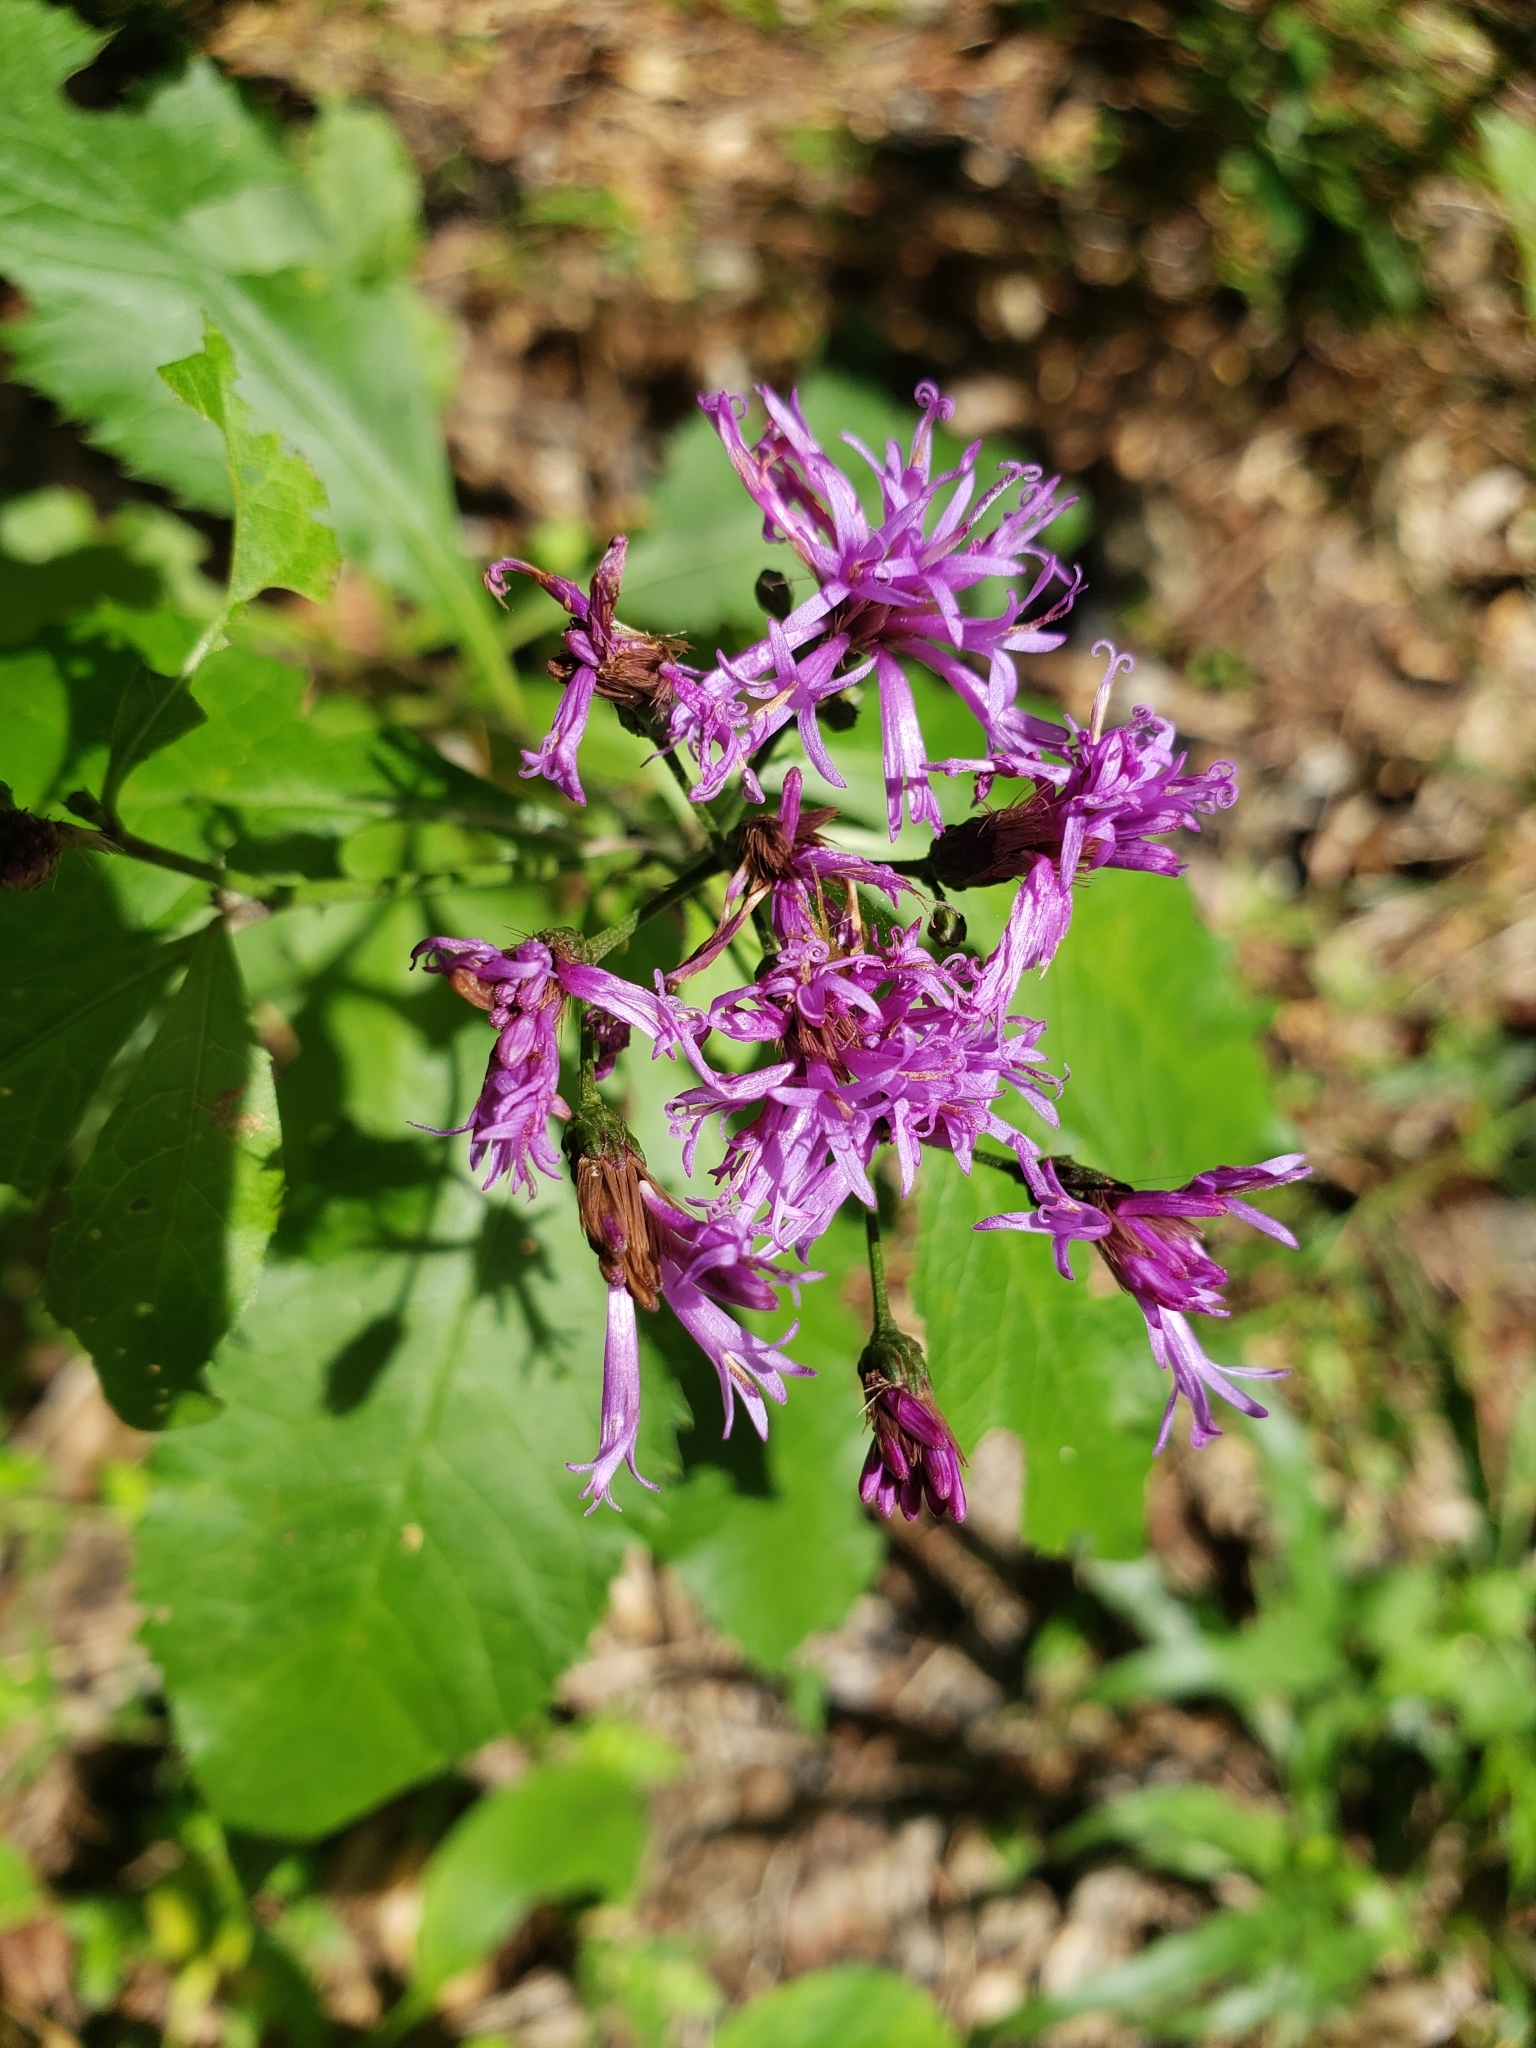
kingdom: Plantae
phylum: Tracheophyta
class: Magnoliopsida
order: Asterales
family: Asteraceae
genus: Vernonia
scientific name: Vernonia gigantea
